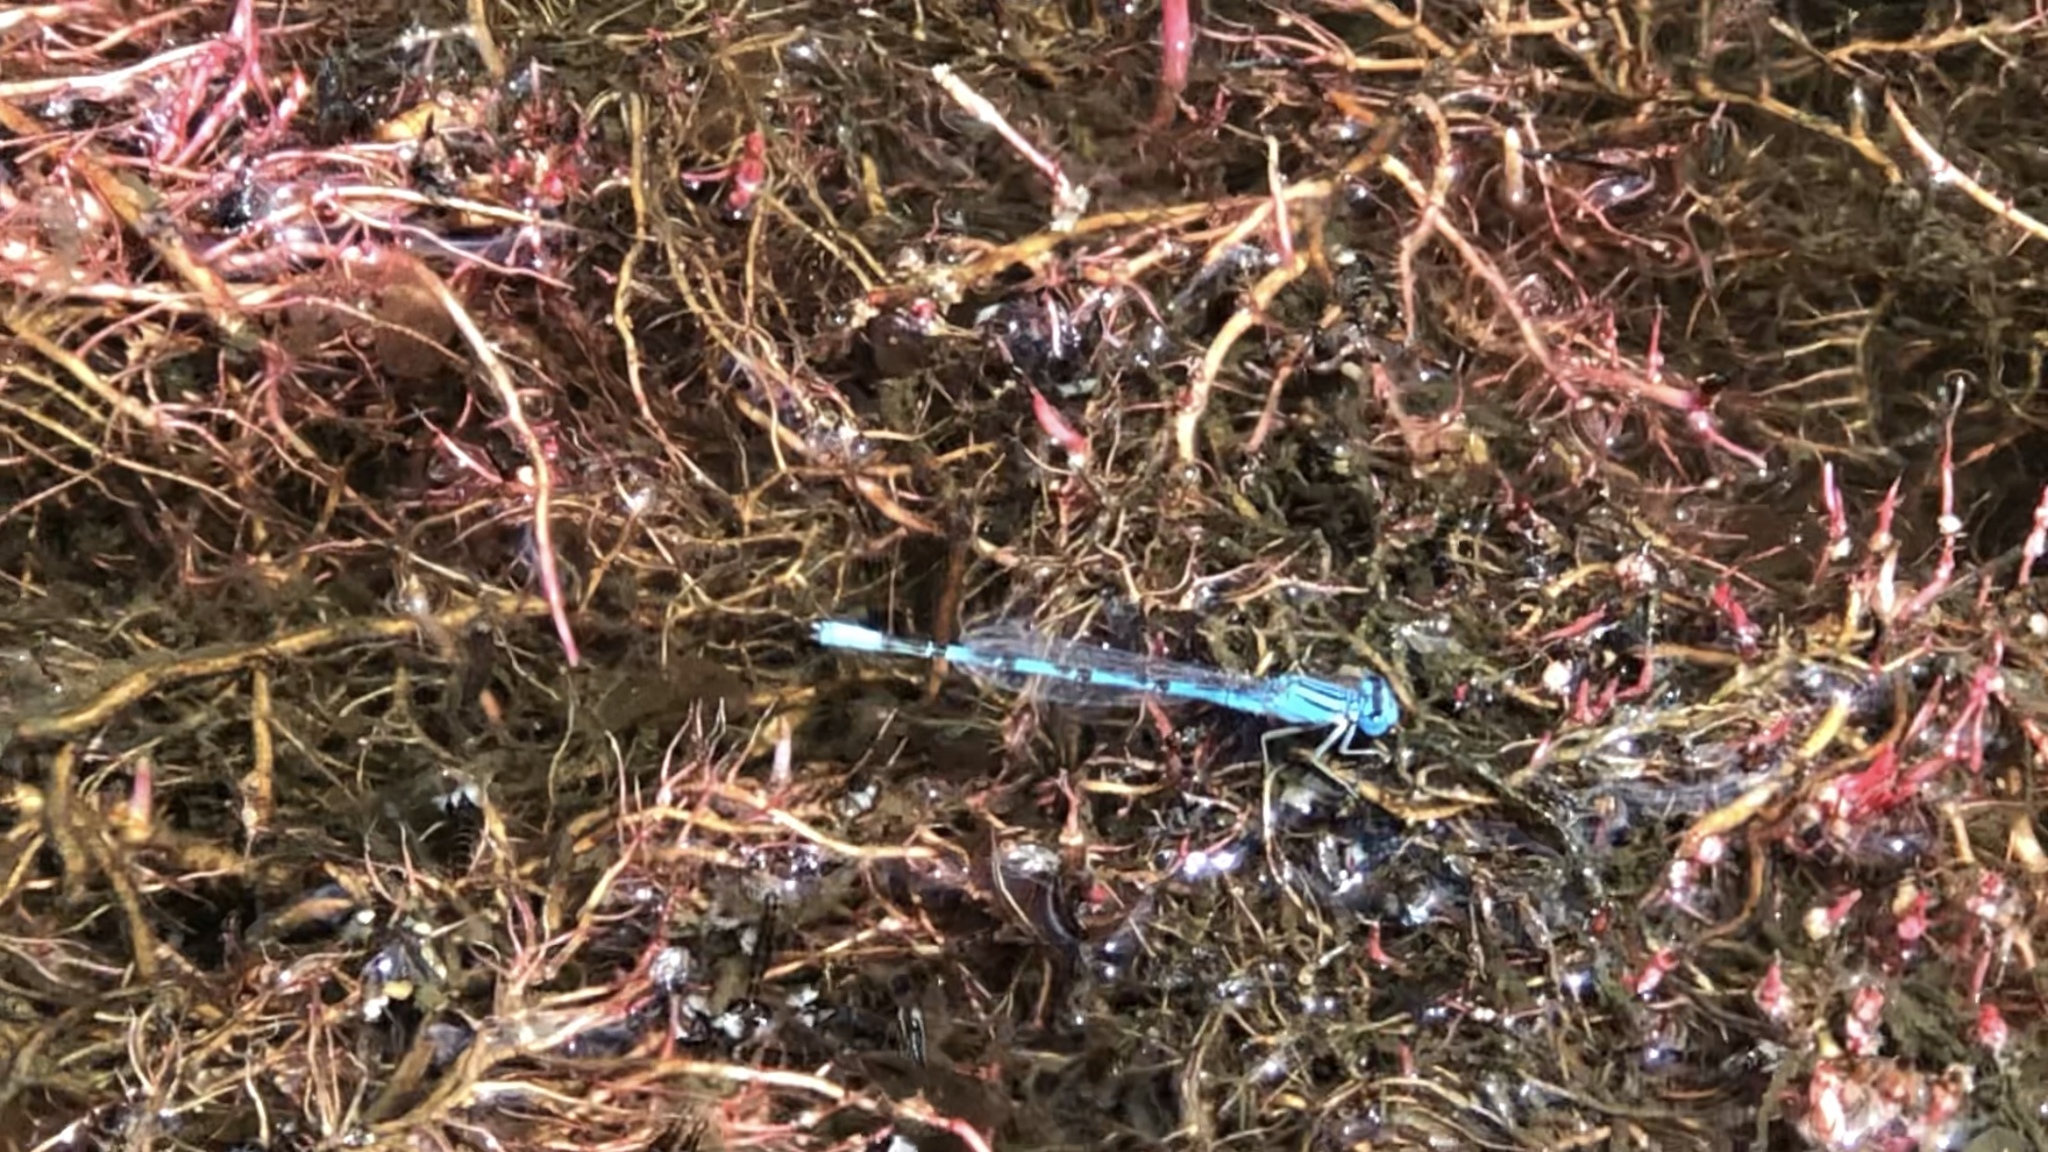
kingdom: Animalia
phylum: Arthropoda
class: Insecta
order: Odonata
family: Coenagrionidae
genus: Enallagma
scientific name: Enallagma eiseni
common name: Baja bluet
